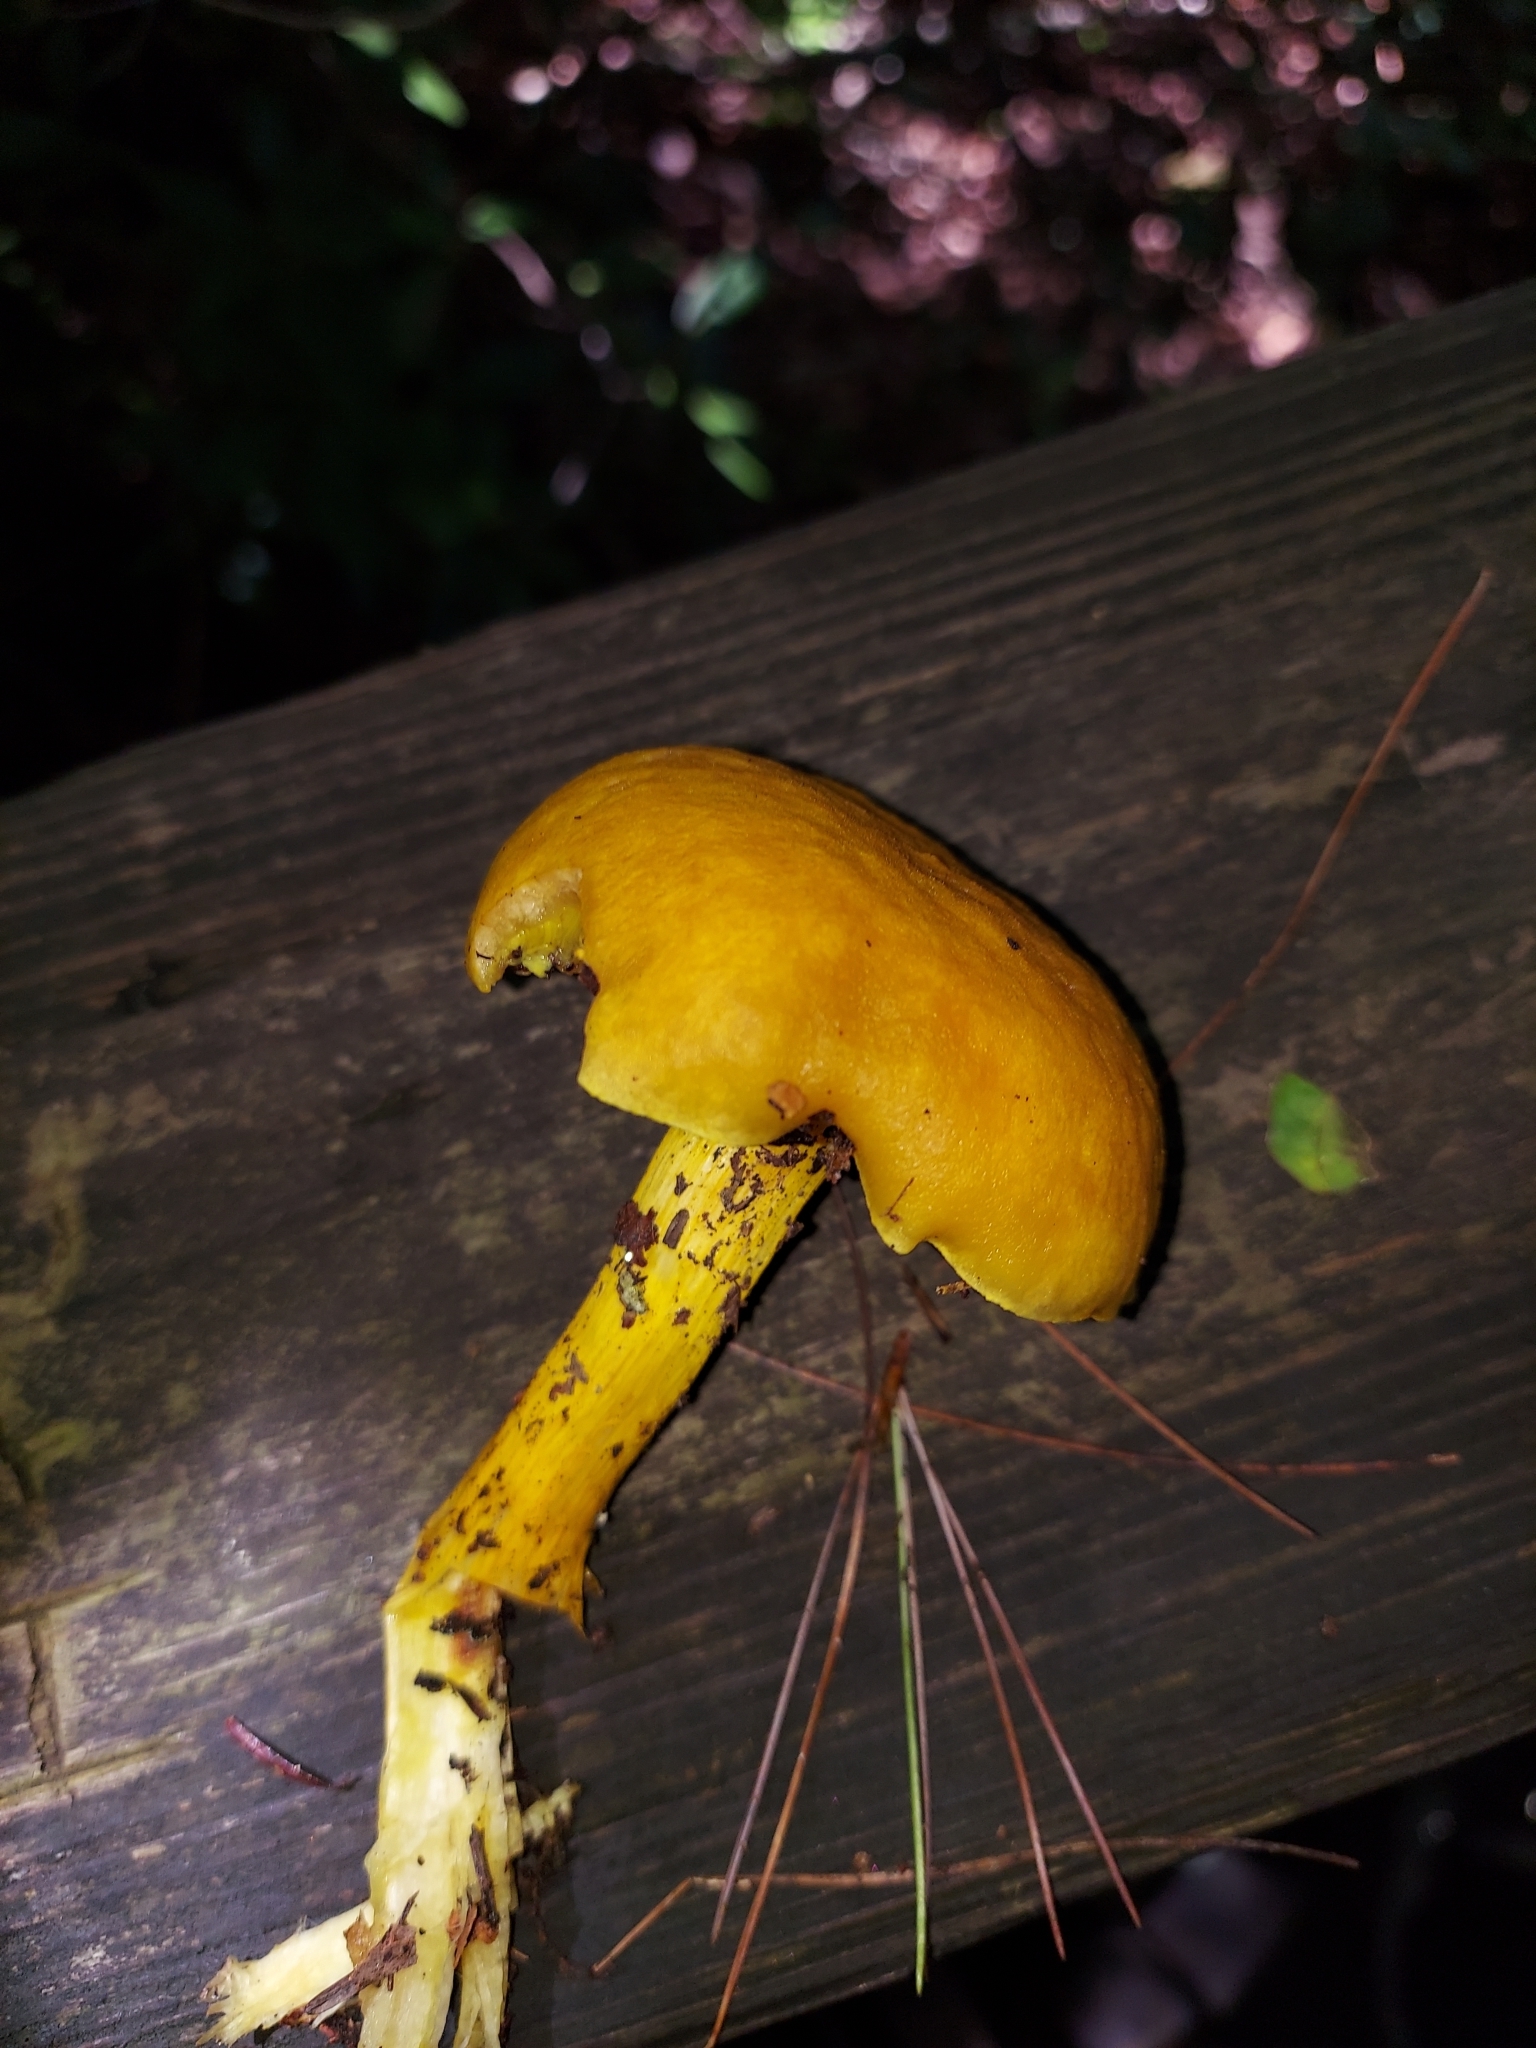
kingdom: Fungi
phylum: Basidiomycota
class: Agaricomycetes
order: Boletales
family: Boletaceae
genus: Retiboletus
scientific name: Retiboletus ornatipes
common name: Ornate-stalked bolete
